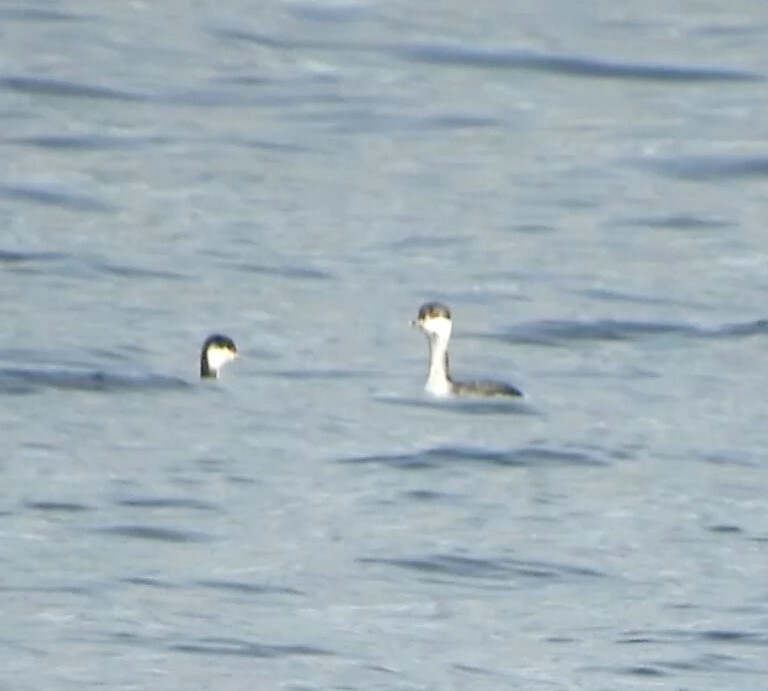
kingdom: Animalia
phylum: Chordata
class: Aves
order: Podicipediformes
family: Podicipedidae
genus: Podiceps
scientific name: Podiceps auritus
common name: Horned grebe
